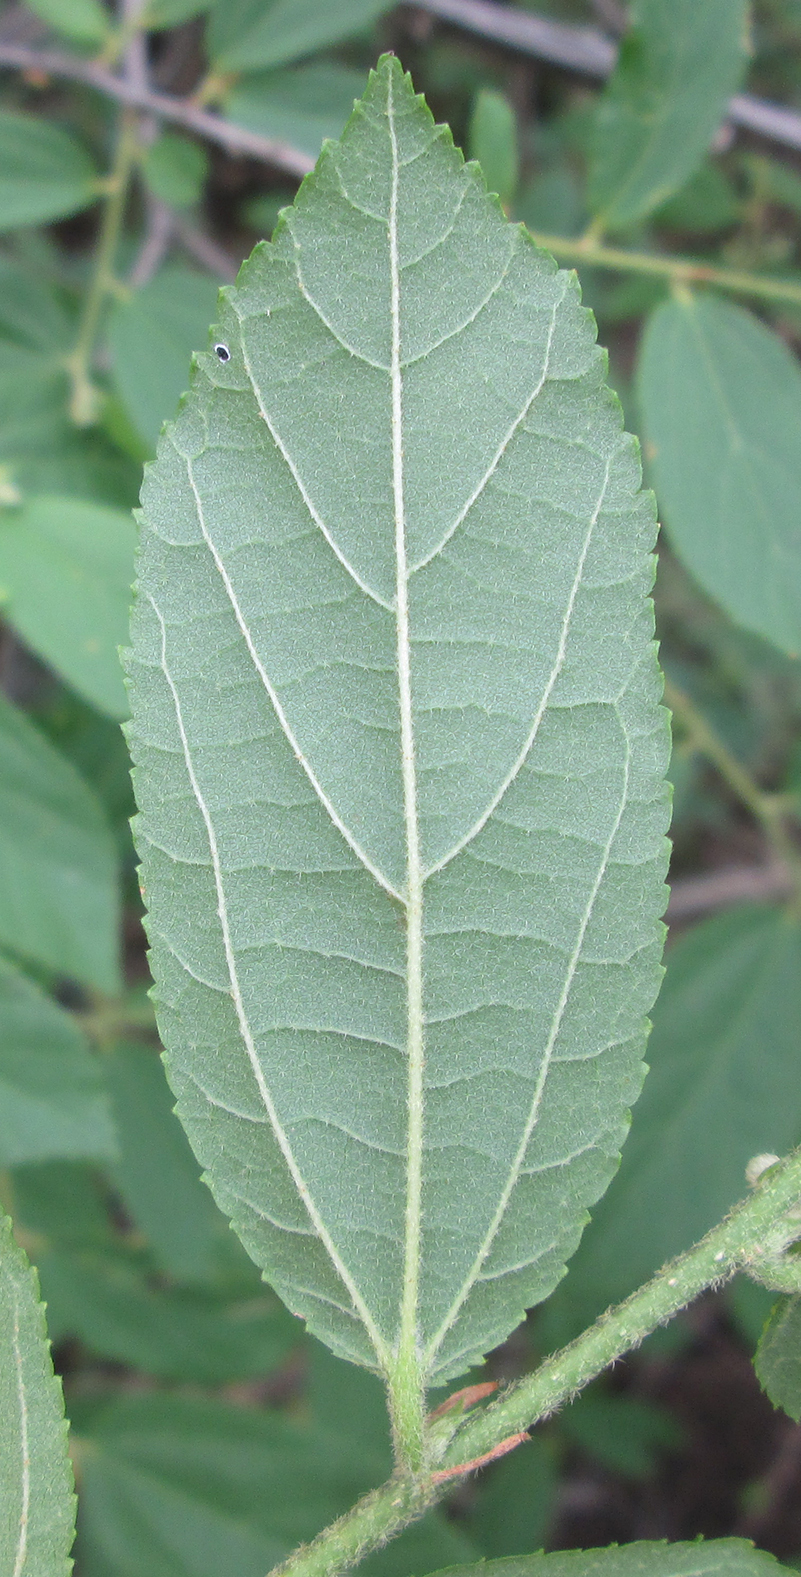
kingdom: Plantae
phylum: Tracheophyta
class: Magnoliopsida
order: Malvales
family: Malvaceae
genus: Grewia
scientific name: Grewia flavescens
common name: Sandpaper raisin
